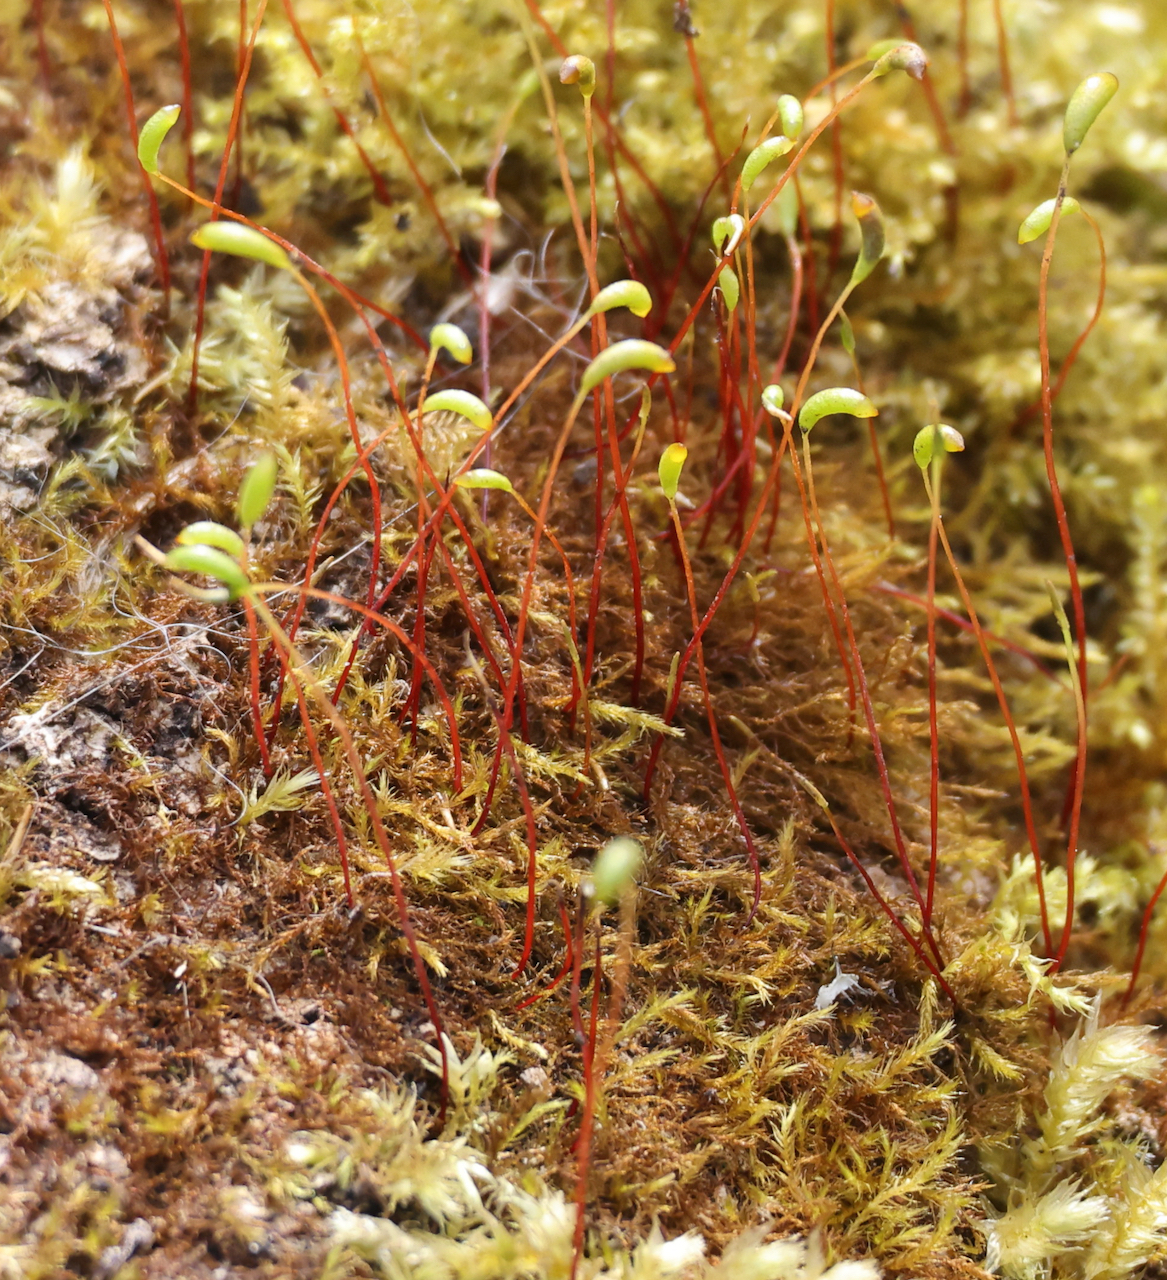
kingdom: Plantae
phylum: Bryophyta
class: Bryopsida
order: Hypnales
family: Amblystegiaceae
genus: Amblystegium
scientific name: Amblystegium serpens
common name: Jurkatzka's feather moss
